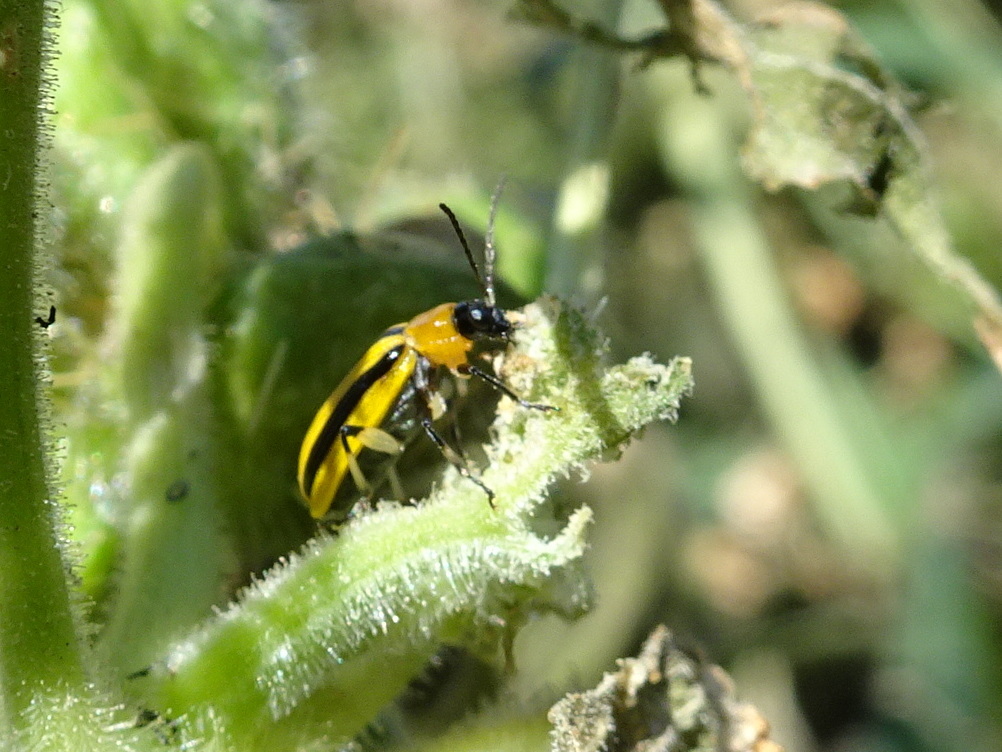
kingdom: Animalia
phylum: Arthropoda
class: Insecta
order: Coleoptera
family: Chrysomelidae
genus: Acalymma
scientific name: Acalymma vittatum
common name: Striped cucumber beetle
